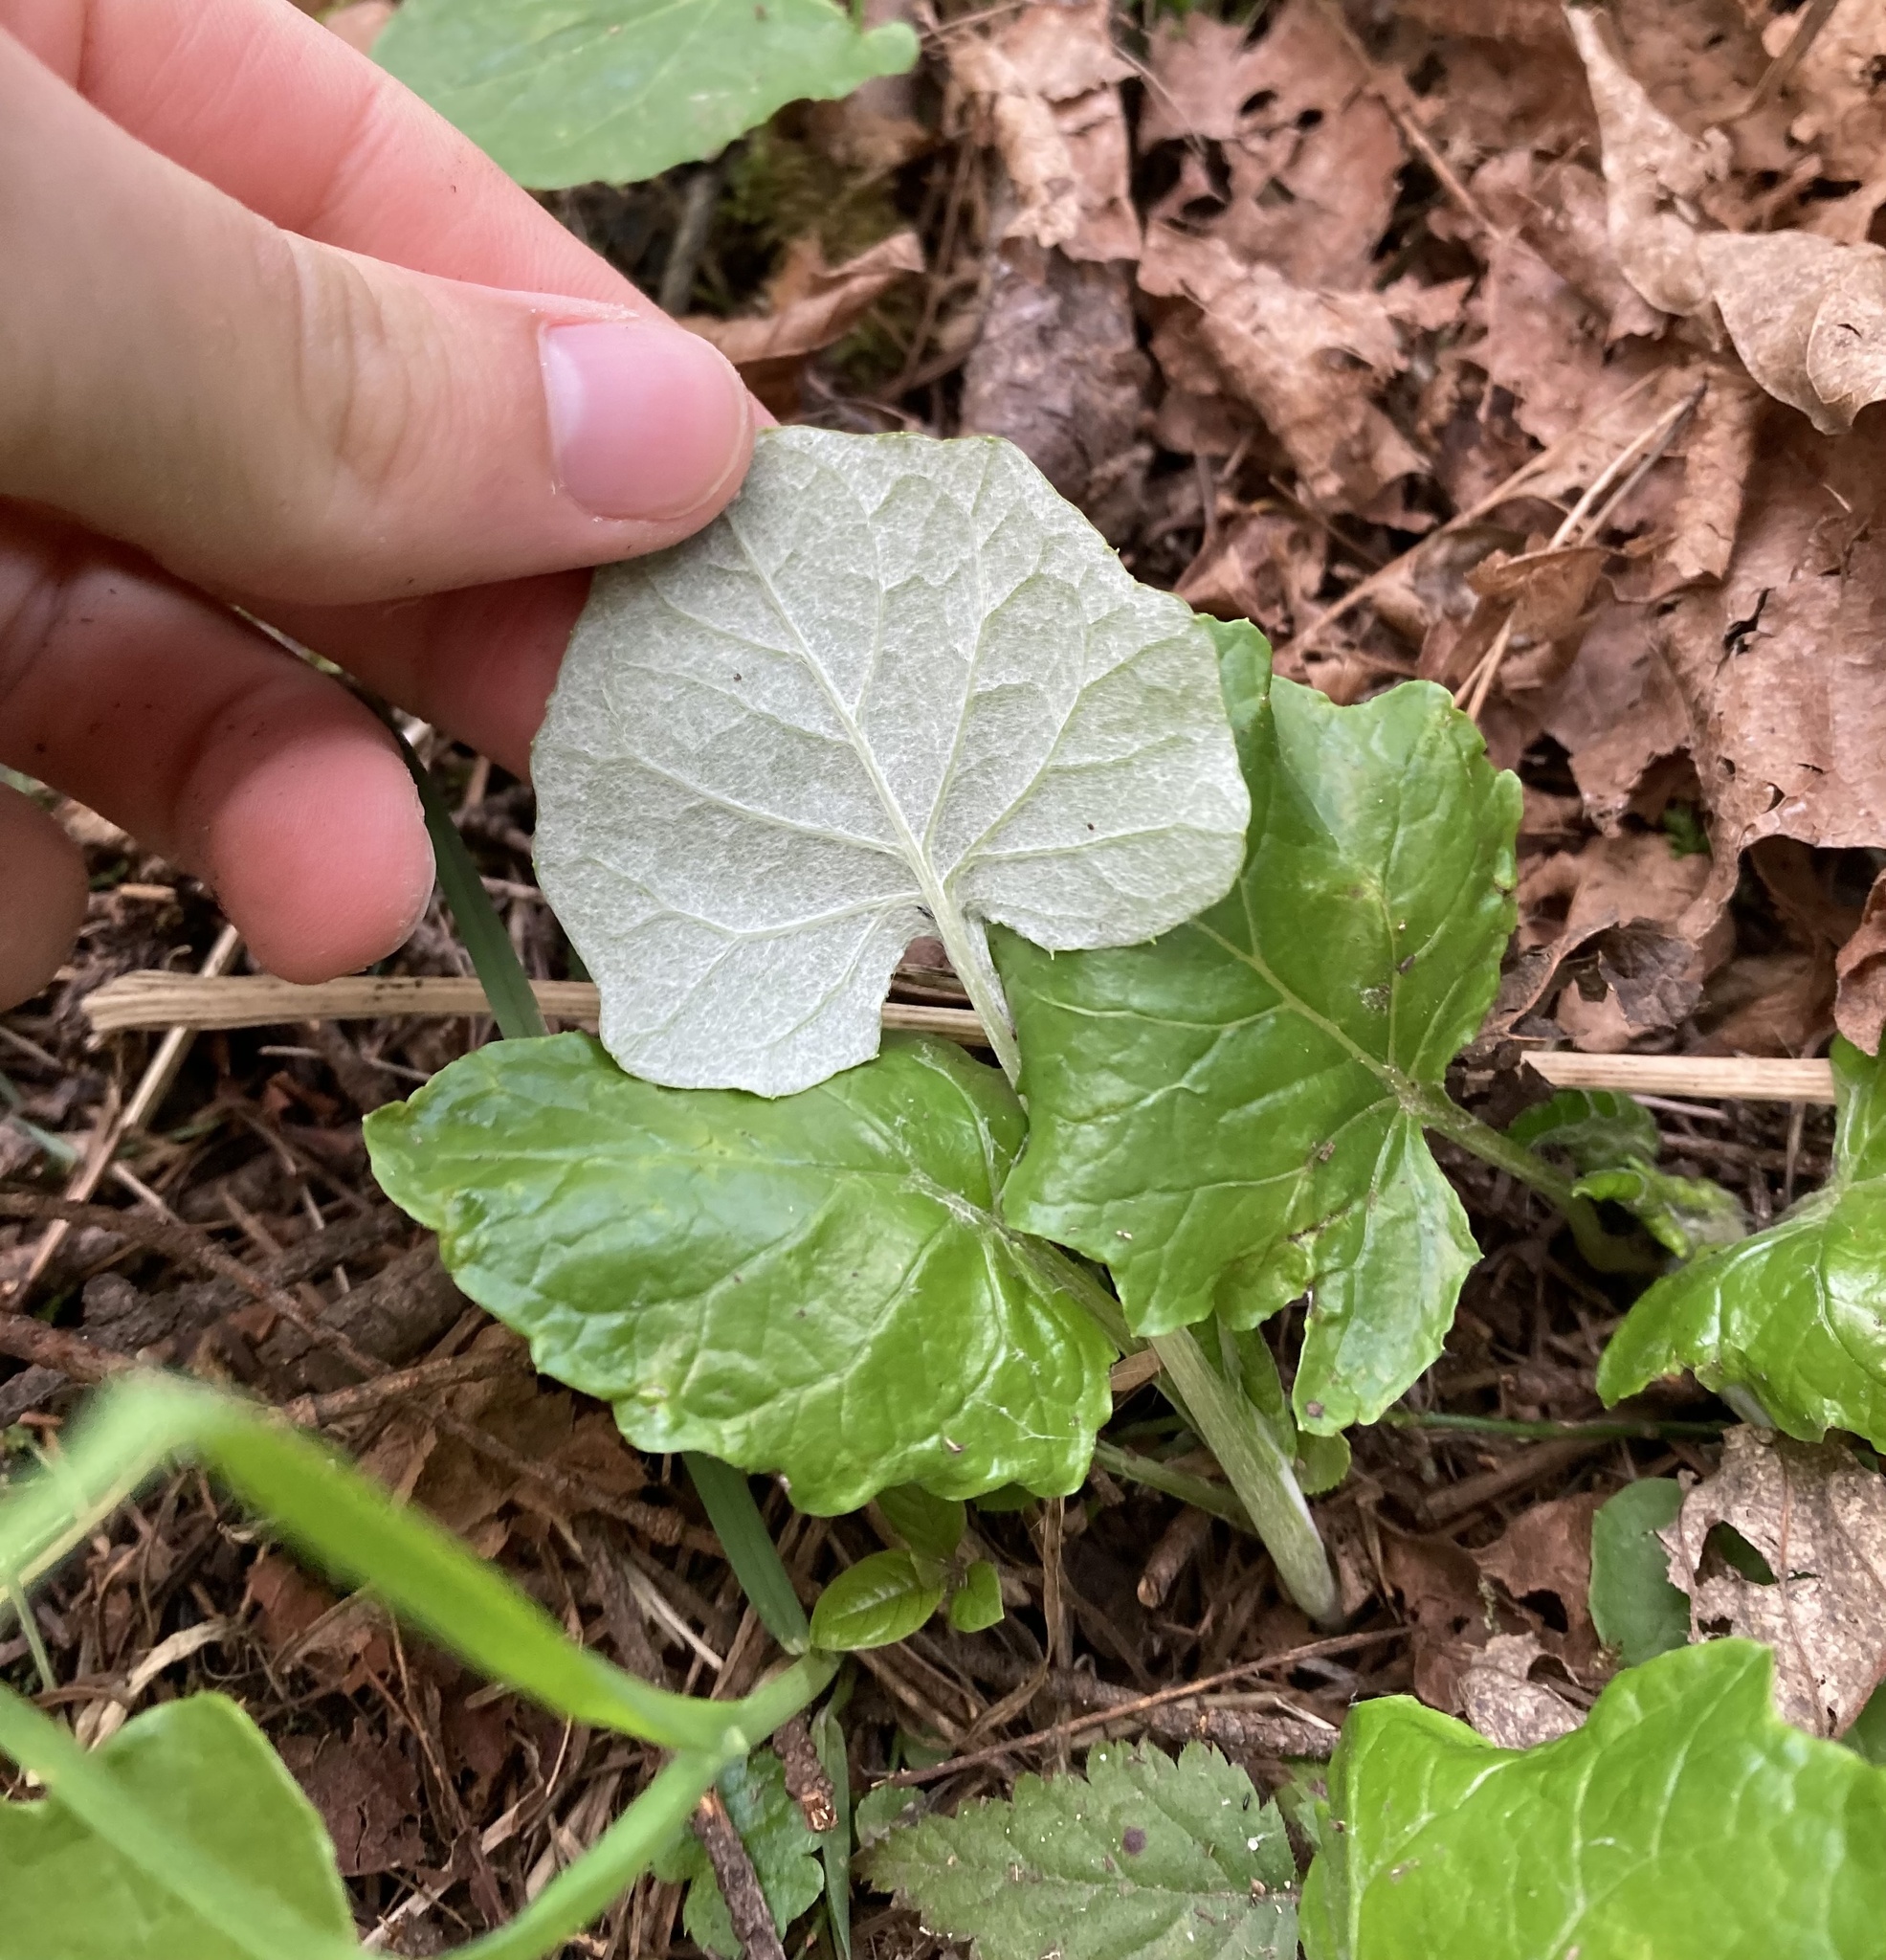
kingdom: Plantae
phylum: Tracheophyta
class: Magnoliopsida
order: Asterales
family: Asteraceae
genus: Adenocaulon
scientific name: Adenocaulon bicolor
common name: Trailplant
